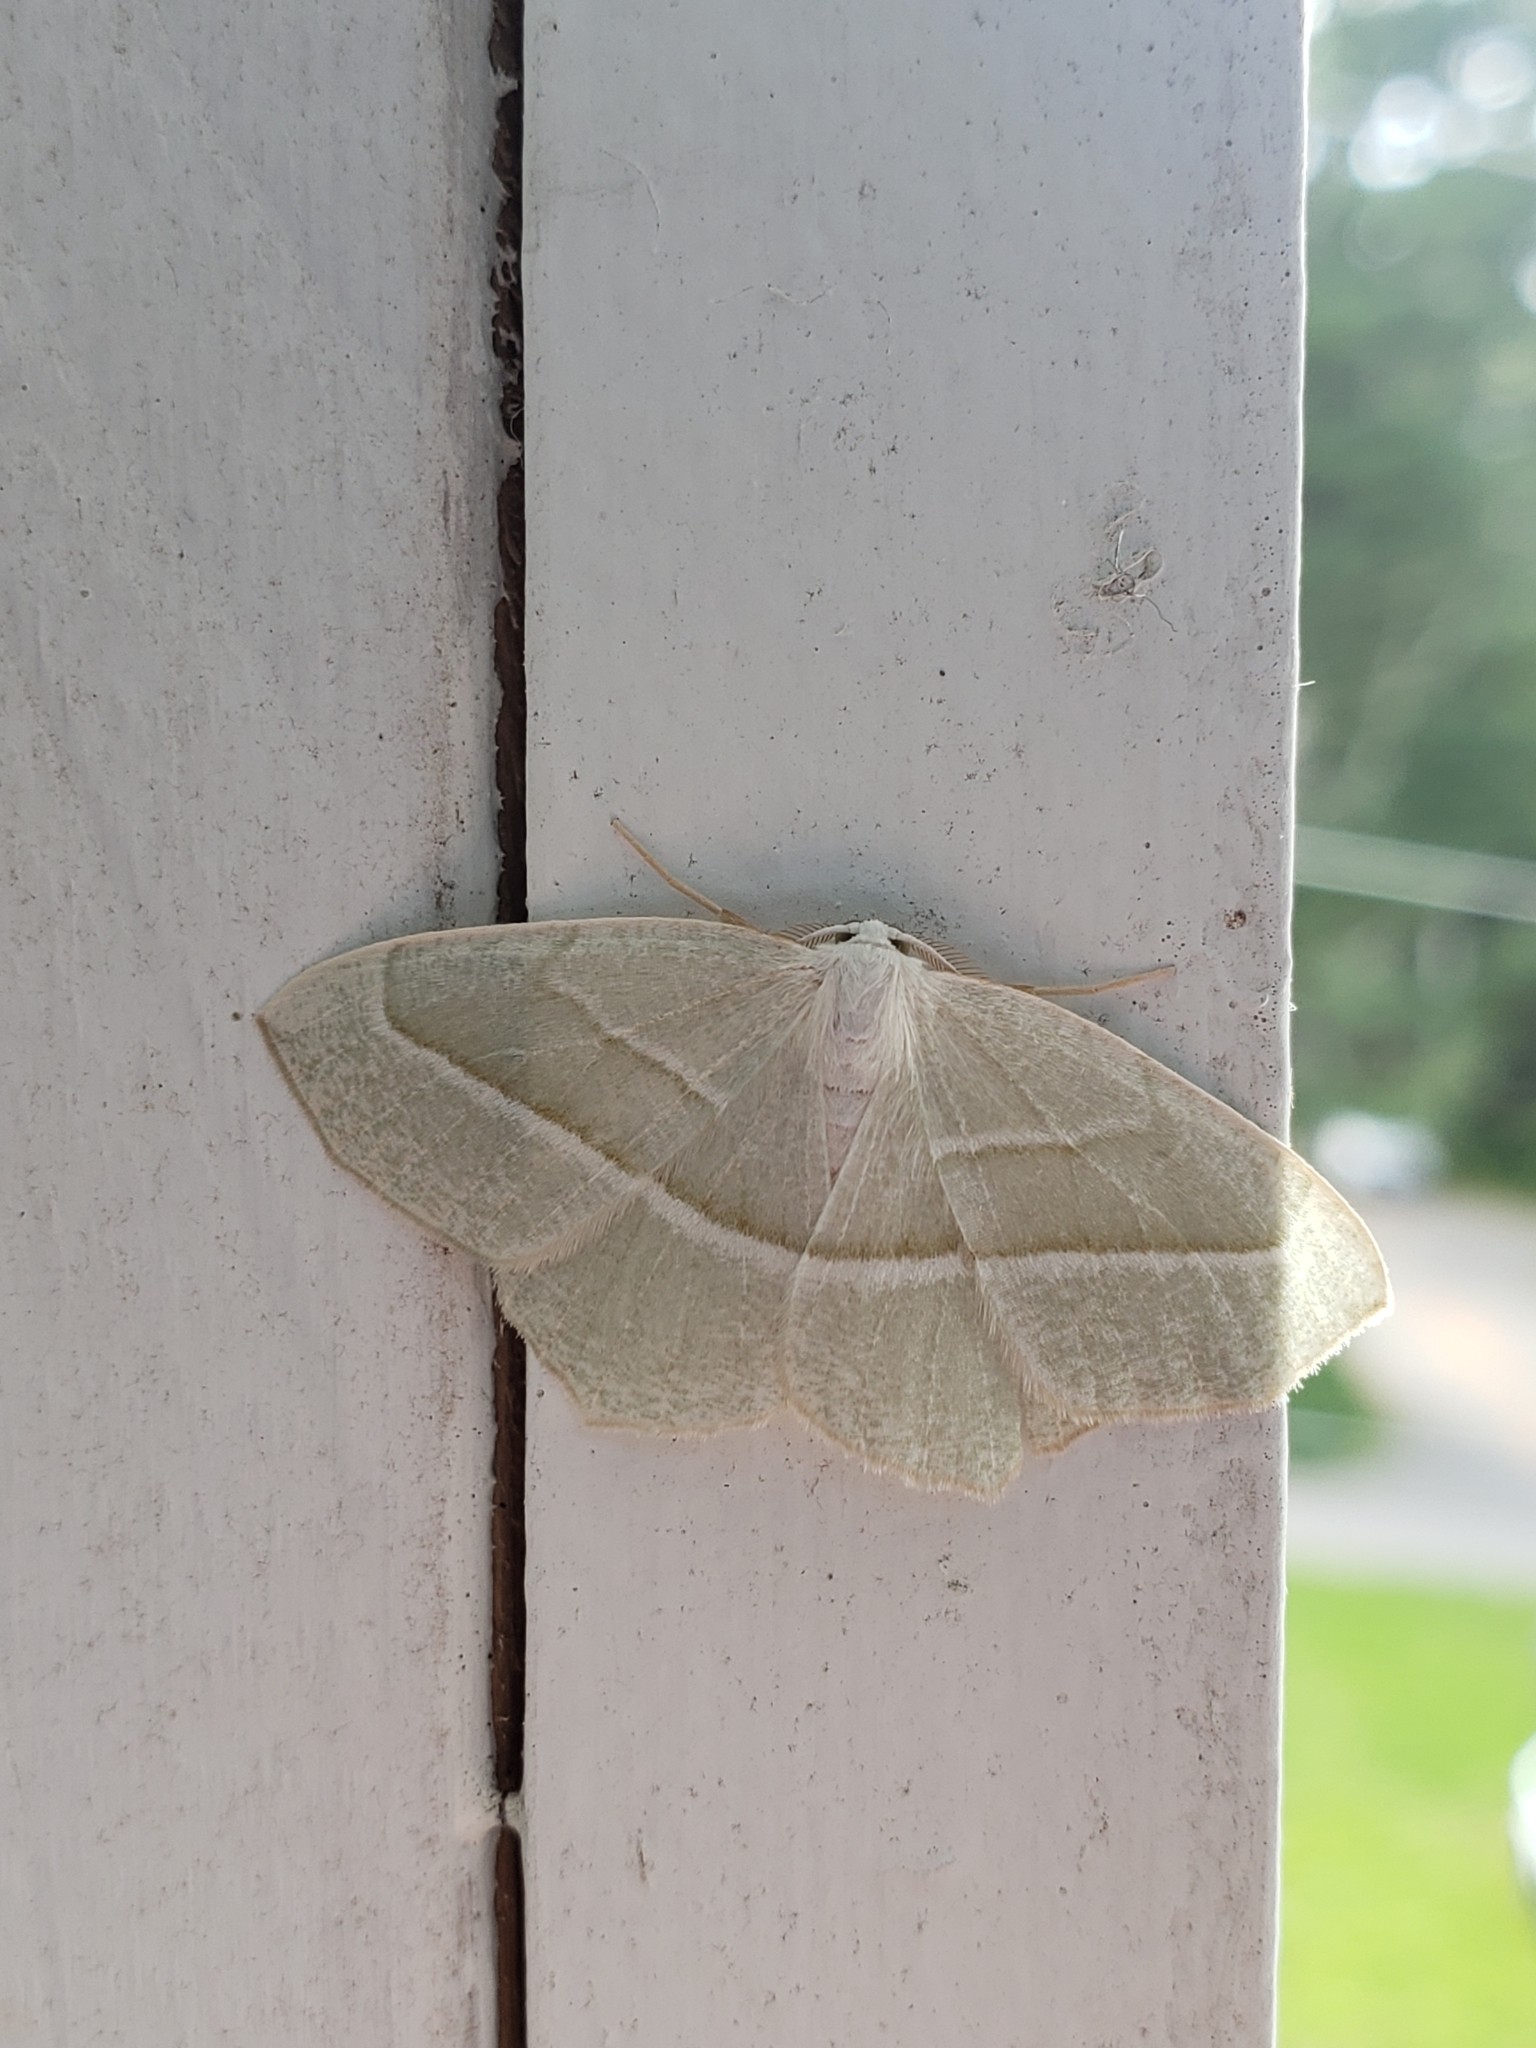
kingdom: Animalia
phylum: Arthropoda
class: Insecta
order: Lepidoptera
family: Geometridae
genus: Campaea
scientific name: Campaea perlata
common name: Fringed looper
